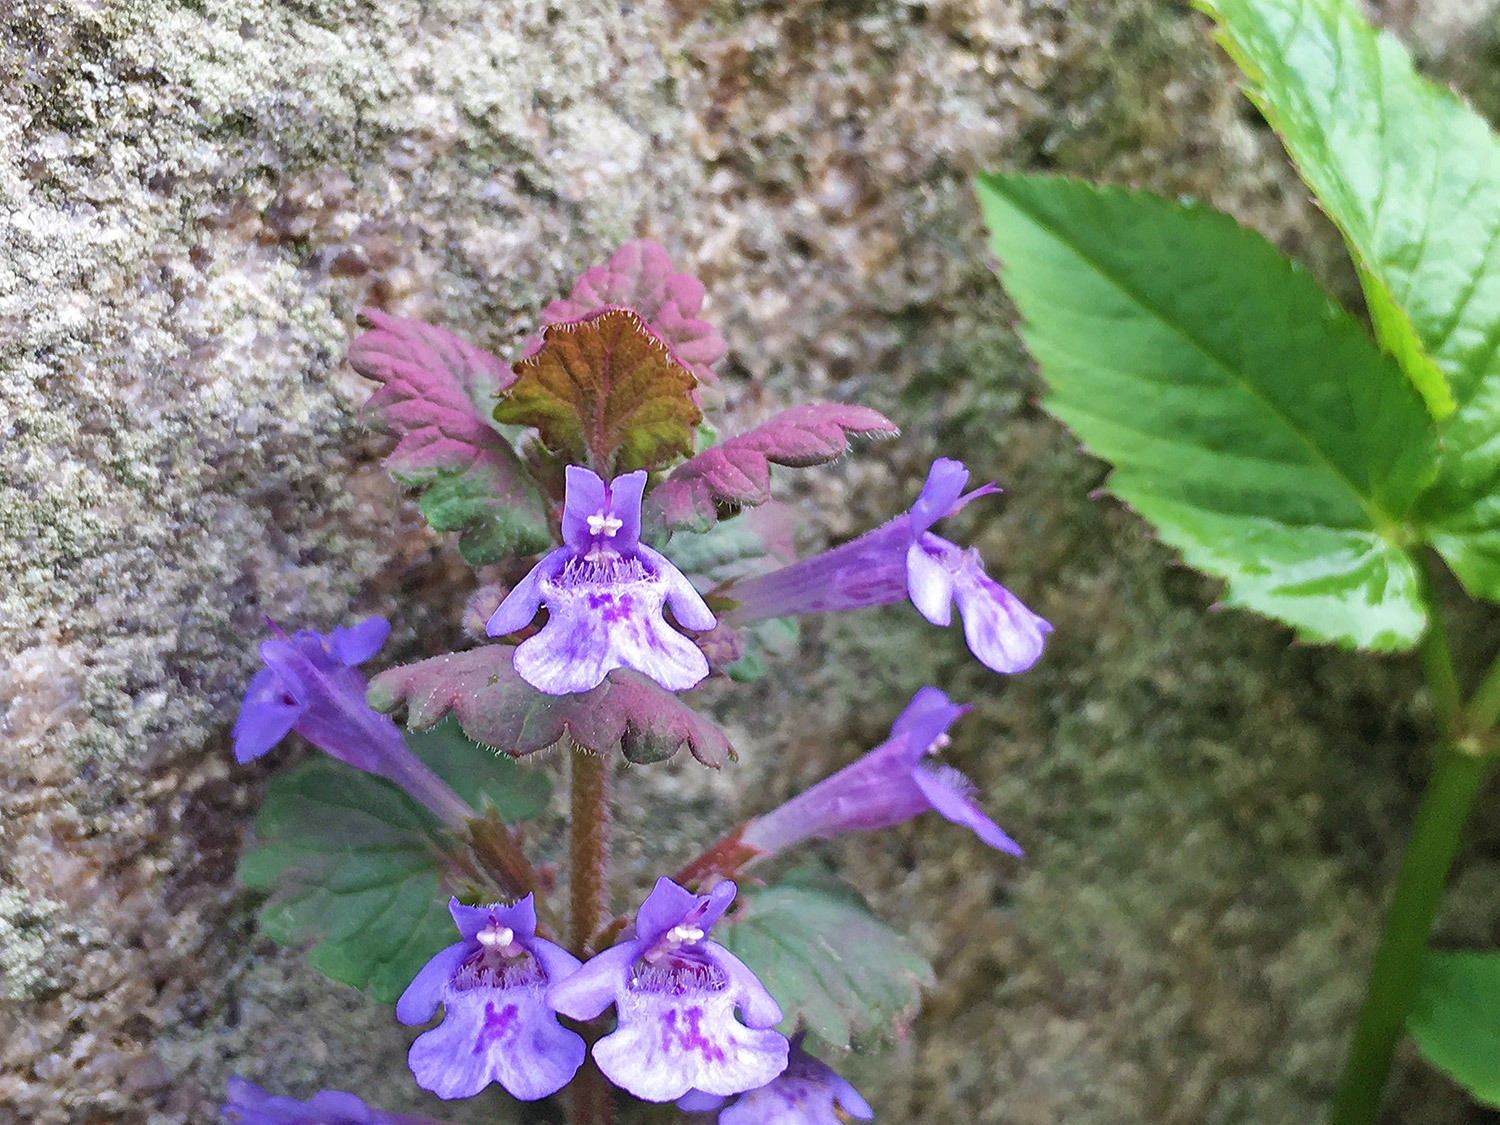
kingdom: Plantae
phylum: Tracheophyta
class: Magnoliopsida
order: Lamiales
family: Lamiaceae
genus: Glechoma
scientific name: Glechoma hederacea
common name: Ground ivy
